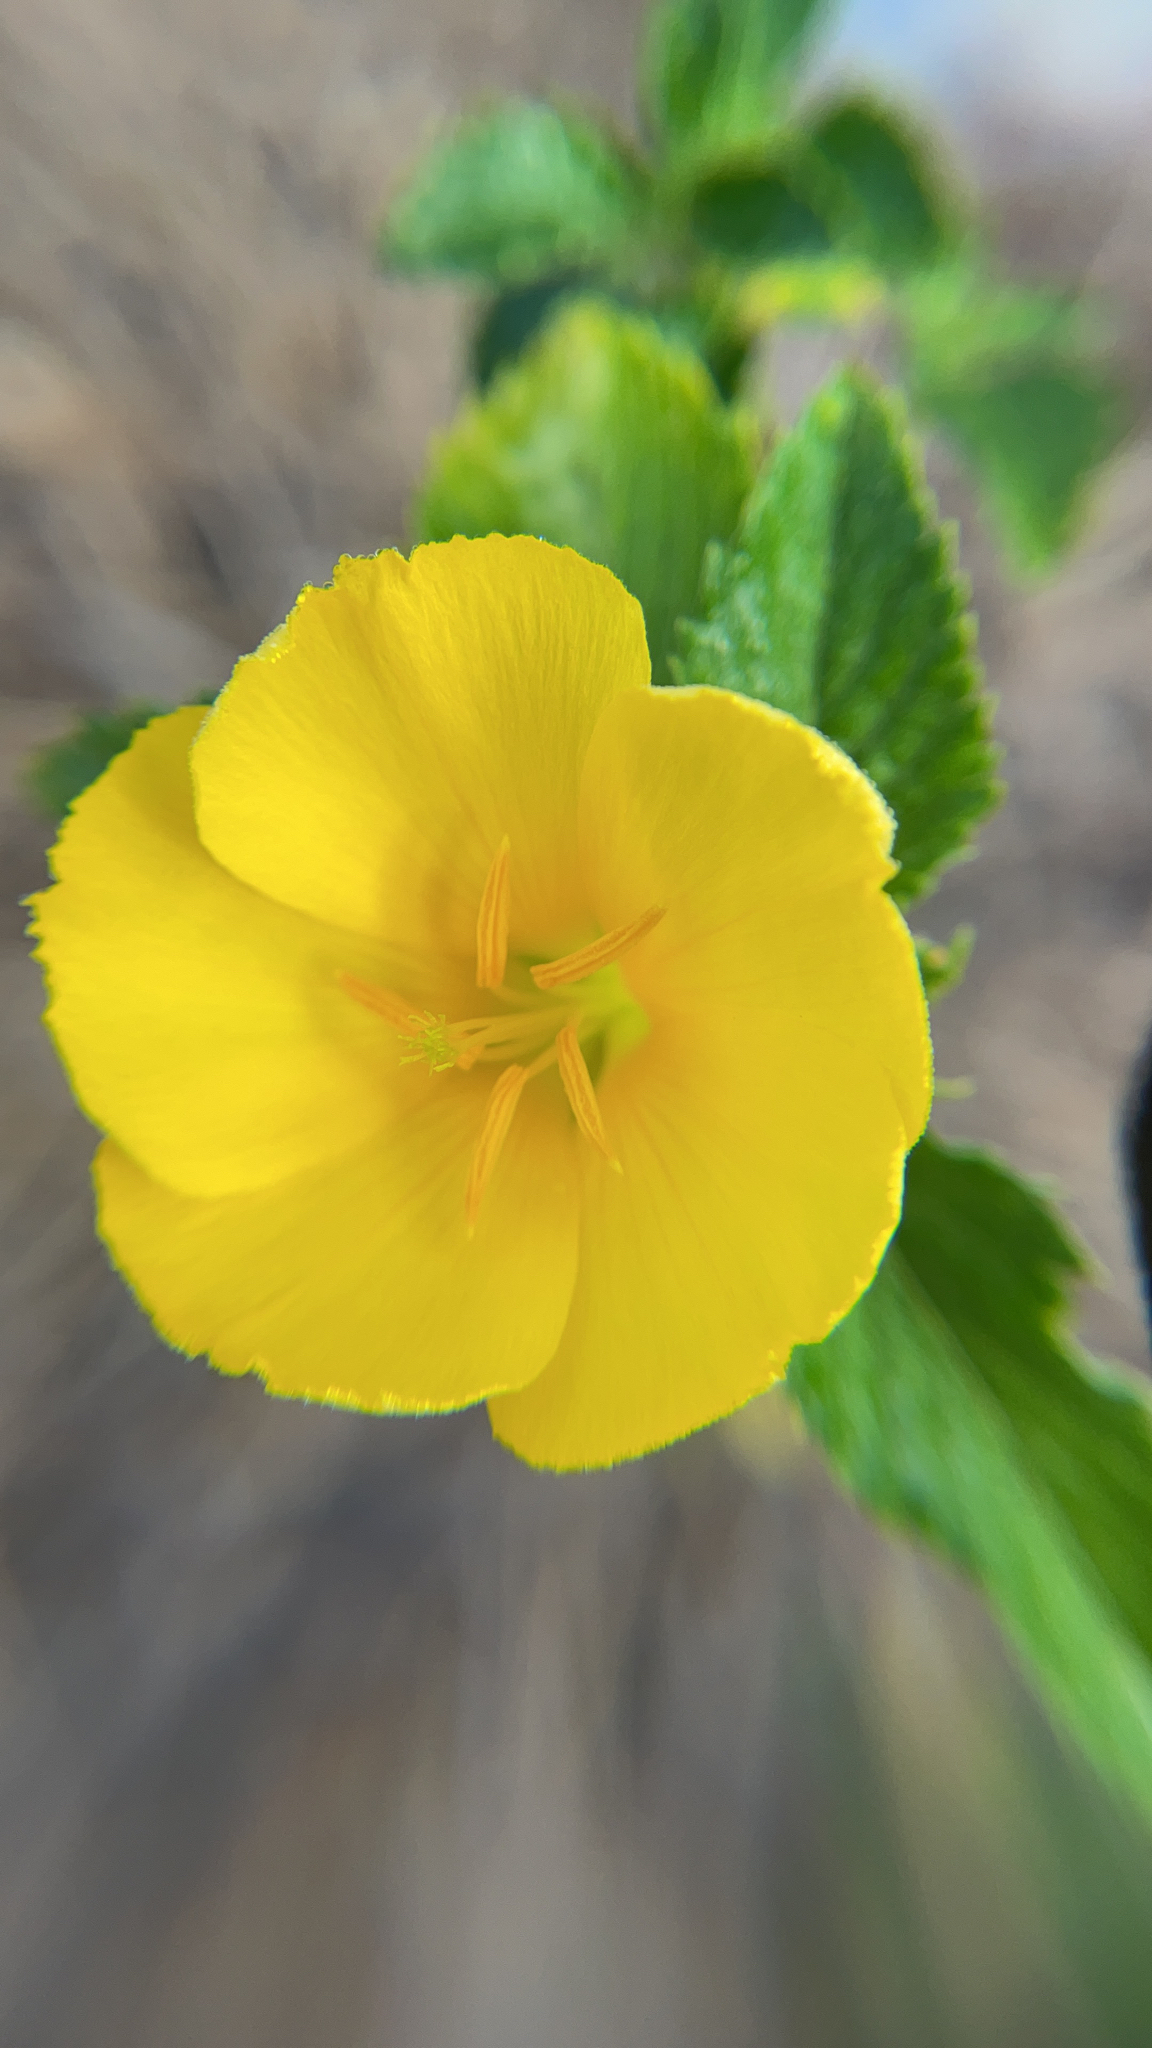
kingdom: Plantae
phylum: Tracheophyta
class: Magnoliopsida
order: Malpighiales
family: Turneraceae
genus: Turnera
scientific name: Turnera ulmifolia
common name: Ramgoat dashalong
